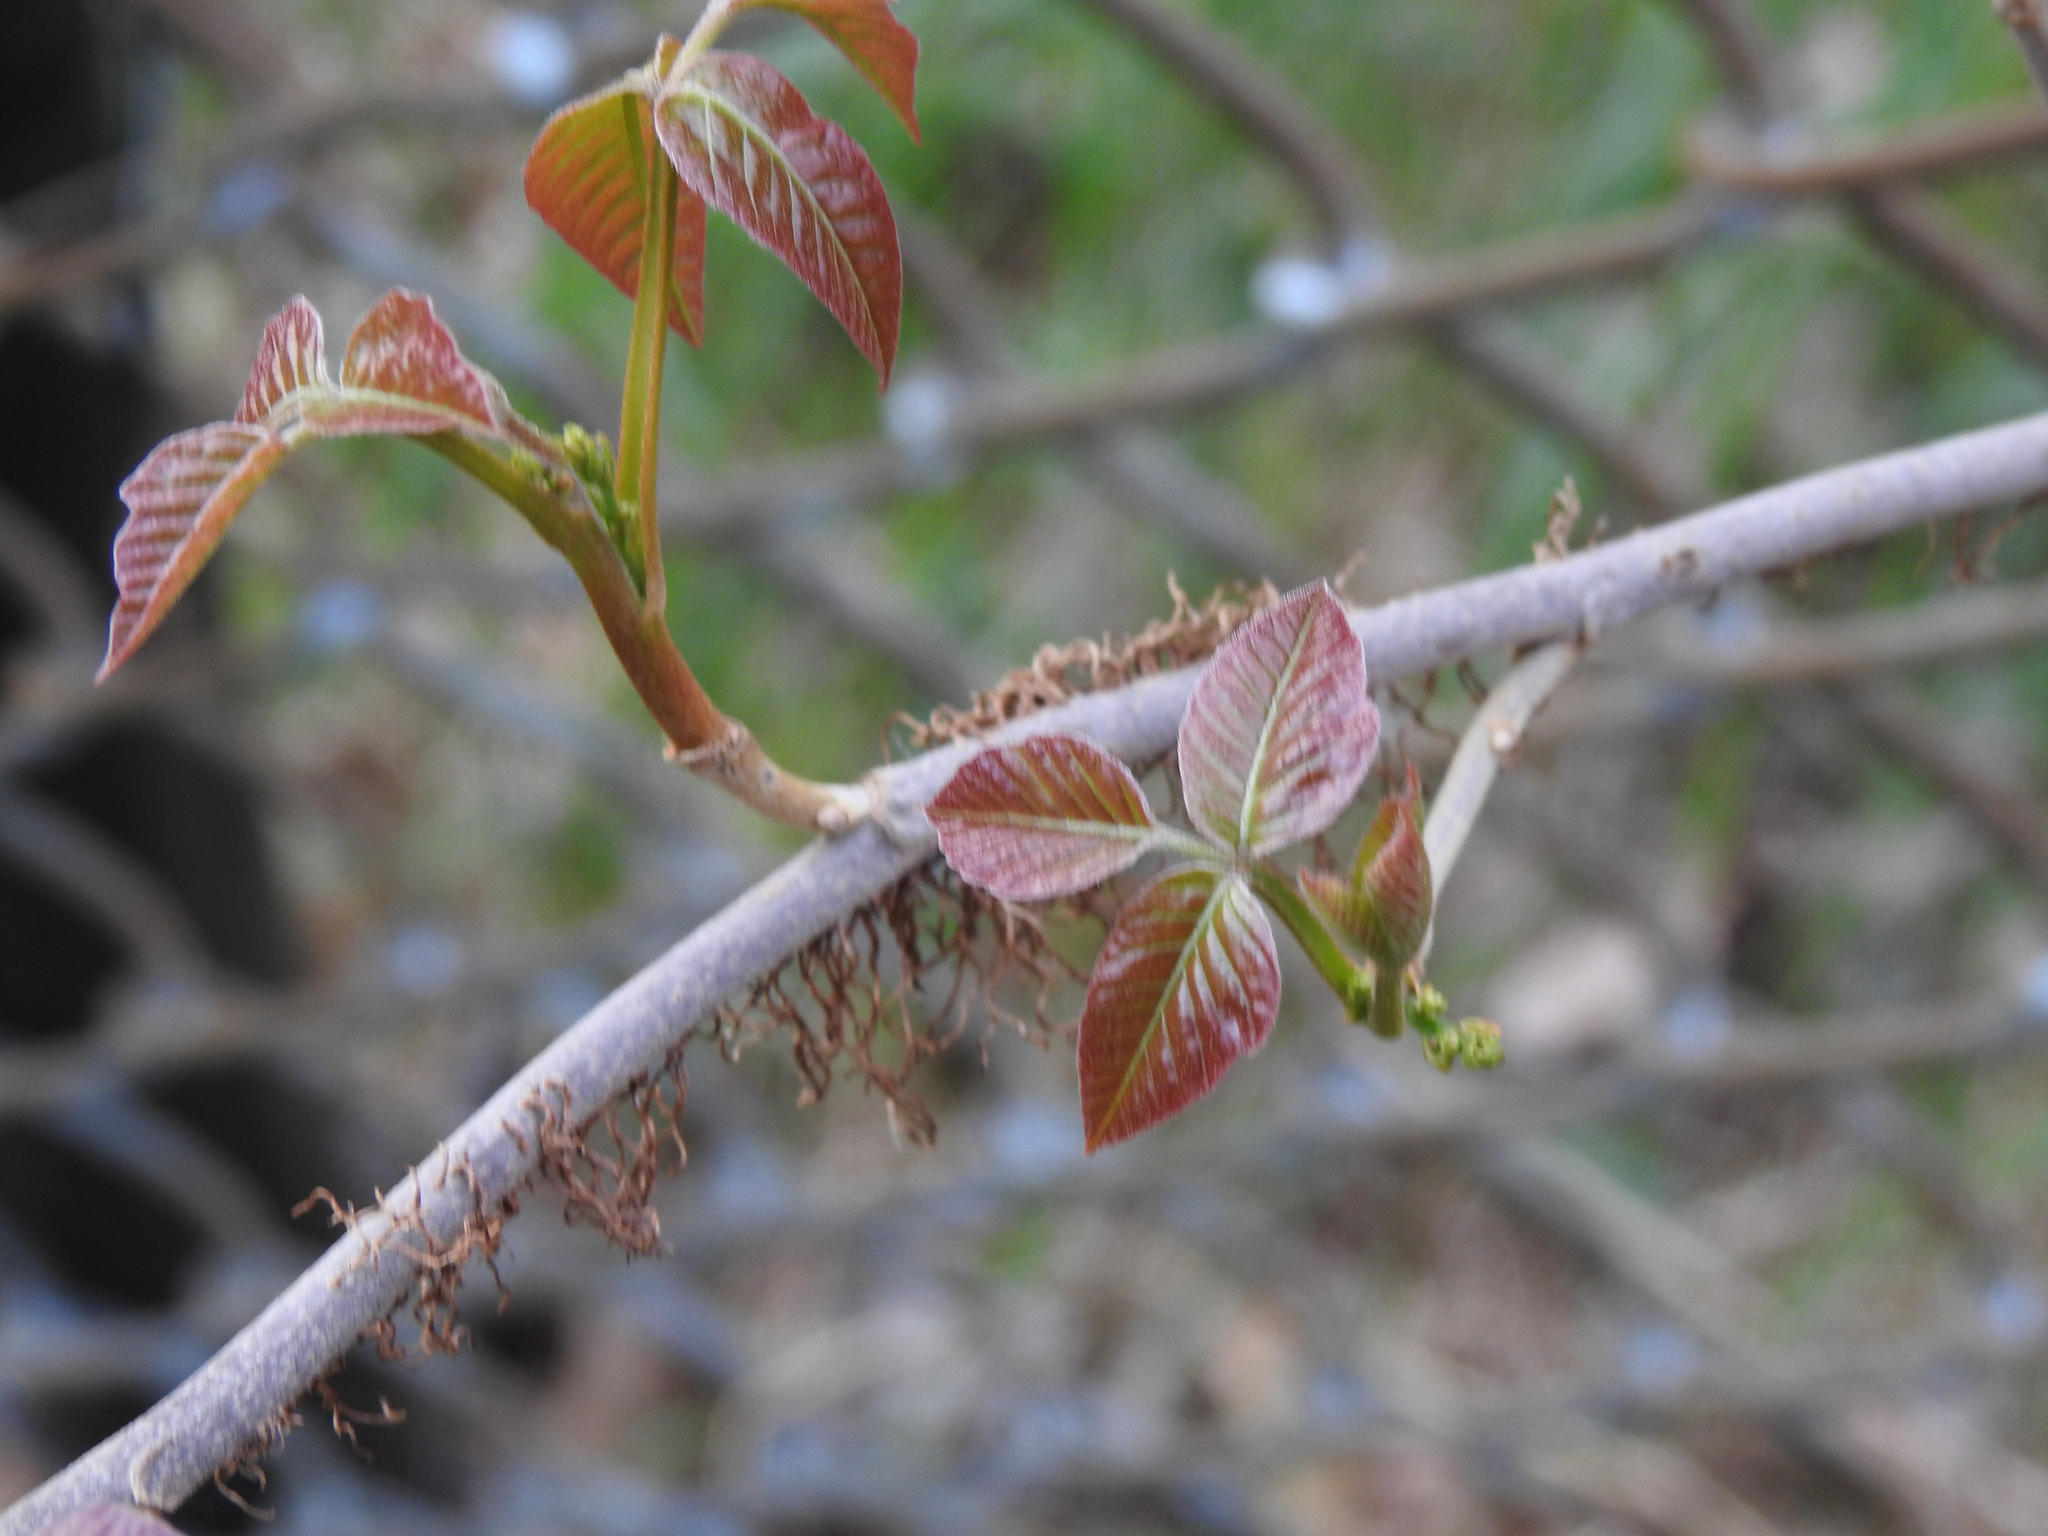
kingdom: Plantae
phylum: Tracheophyta
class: Magnoliopsida
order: Sapindales
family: Anacardiaceae
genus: Toxicodendron
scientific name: Toxicodendron radicans
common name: Poison ivy
